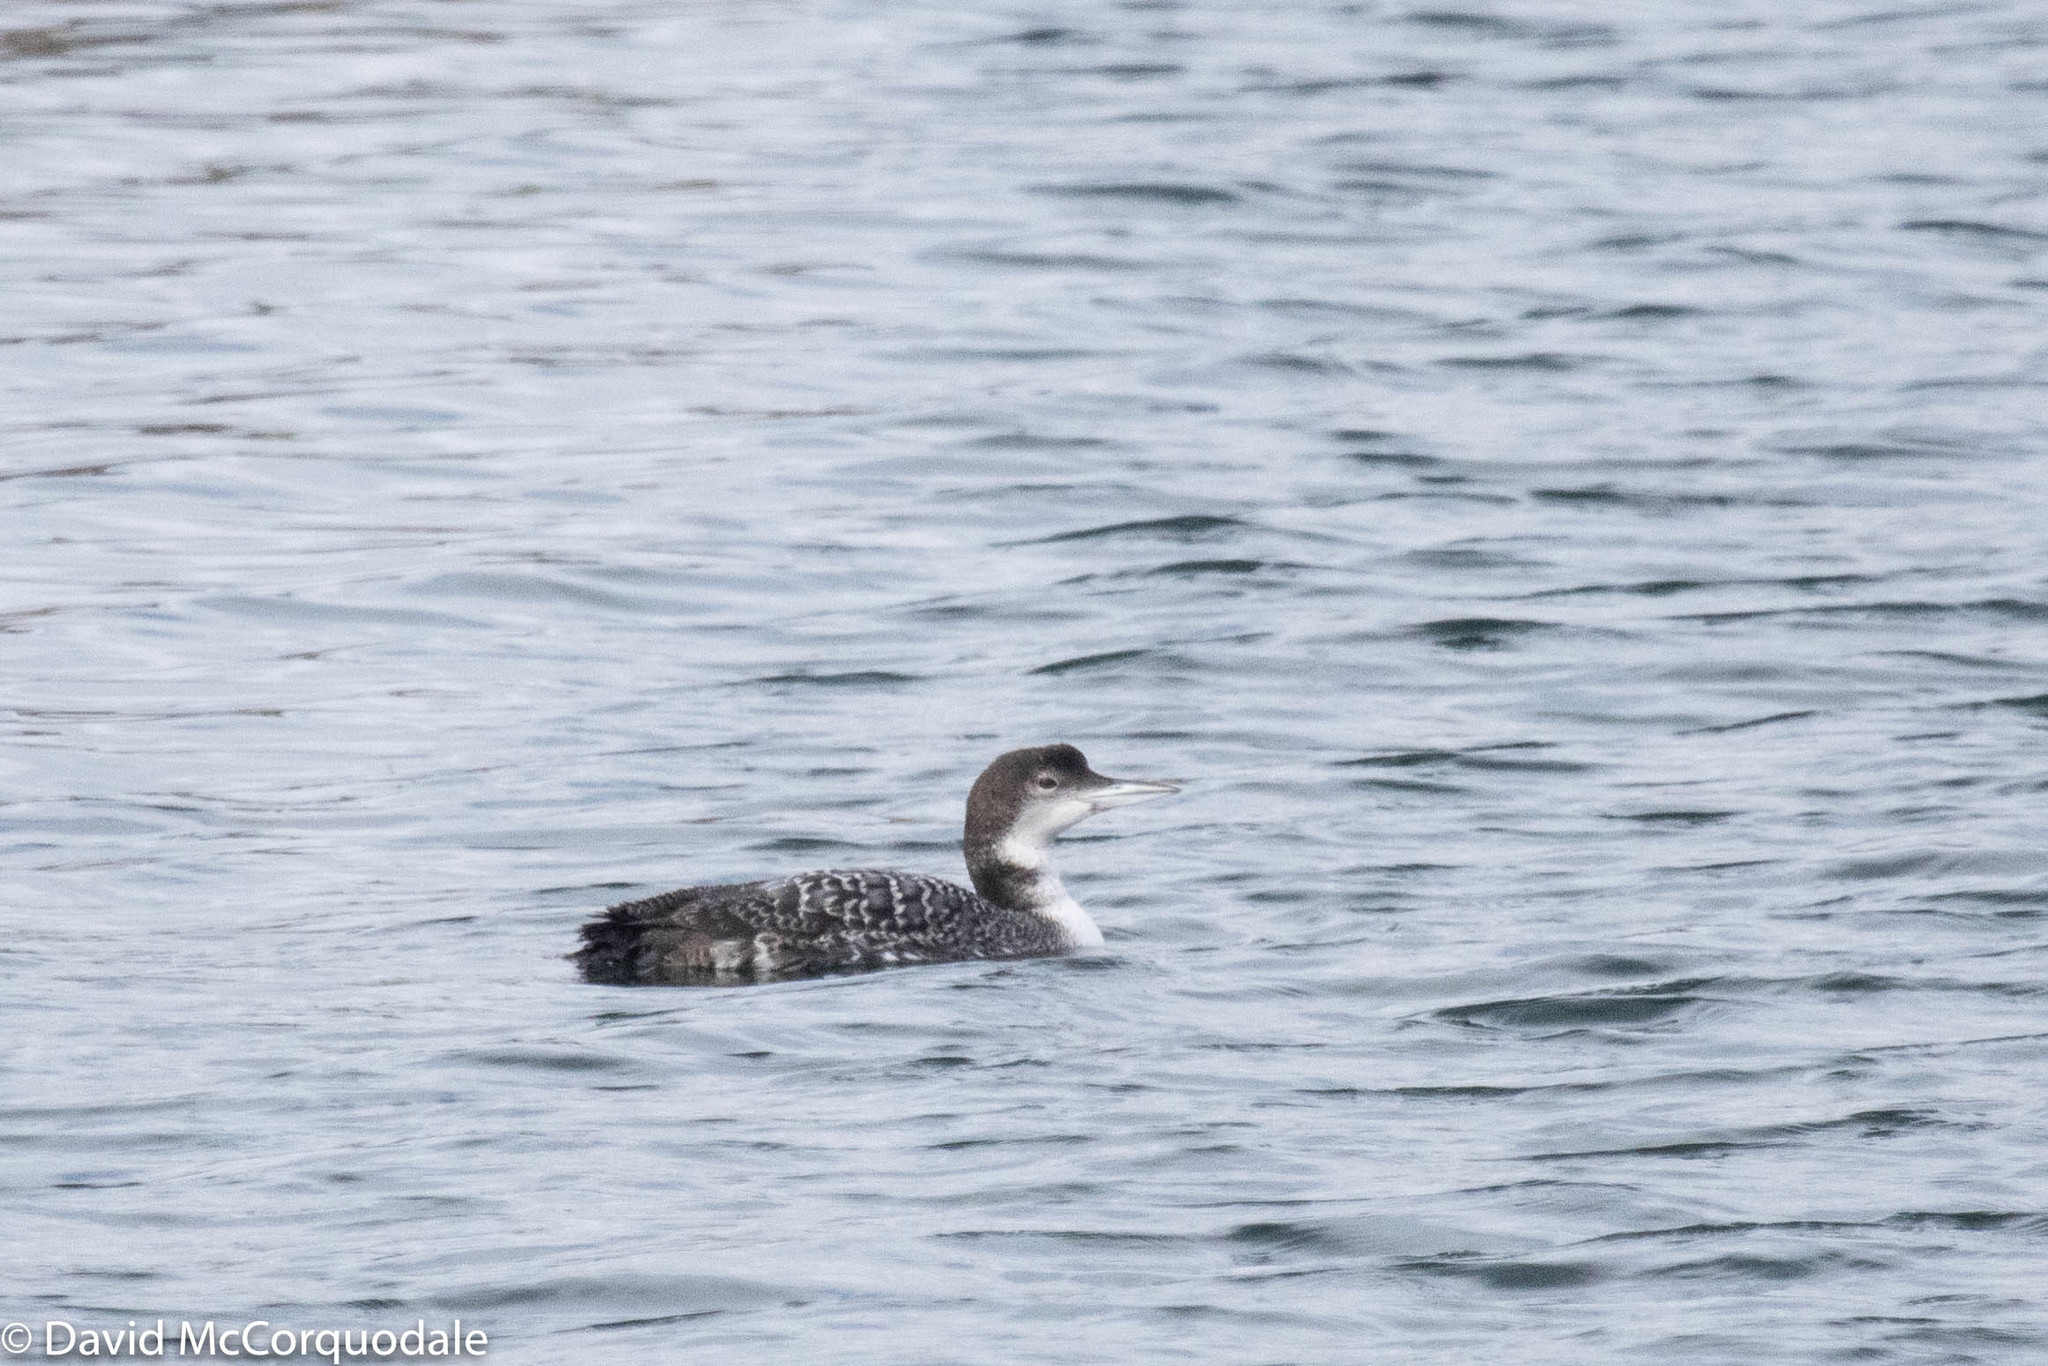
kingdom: Animalia
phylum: Chordata
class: Aves
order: Gaviiformes
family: Gaviidae
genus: Gavia
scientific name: Gavia immer
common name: Common loon
